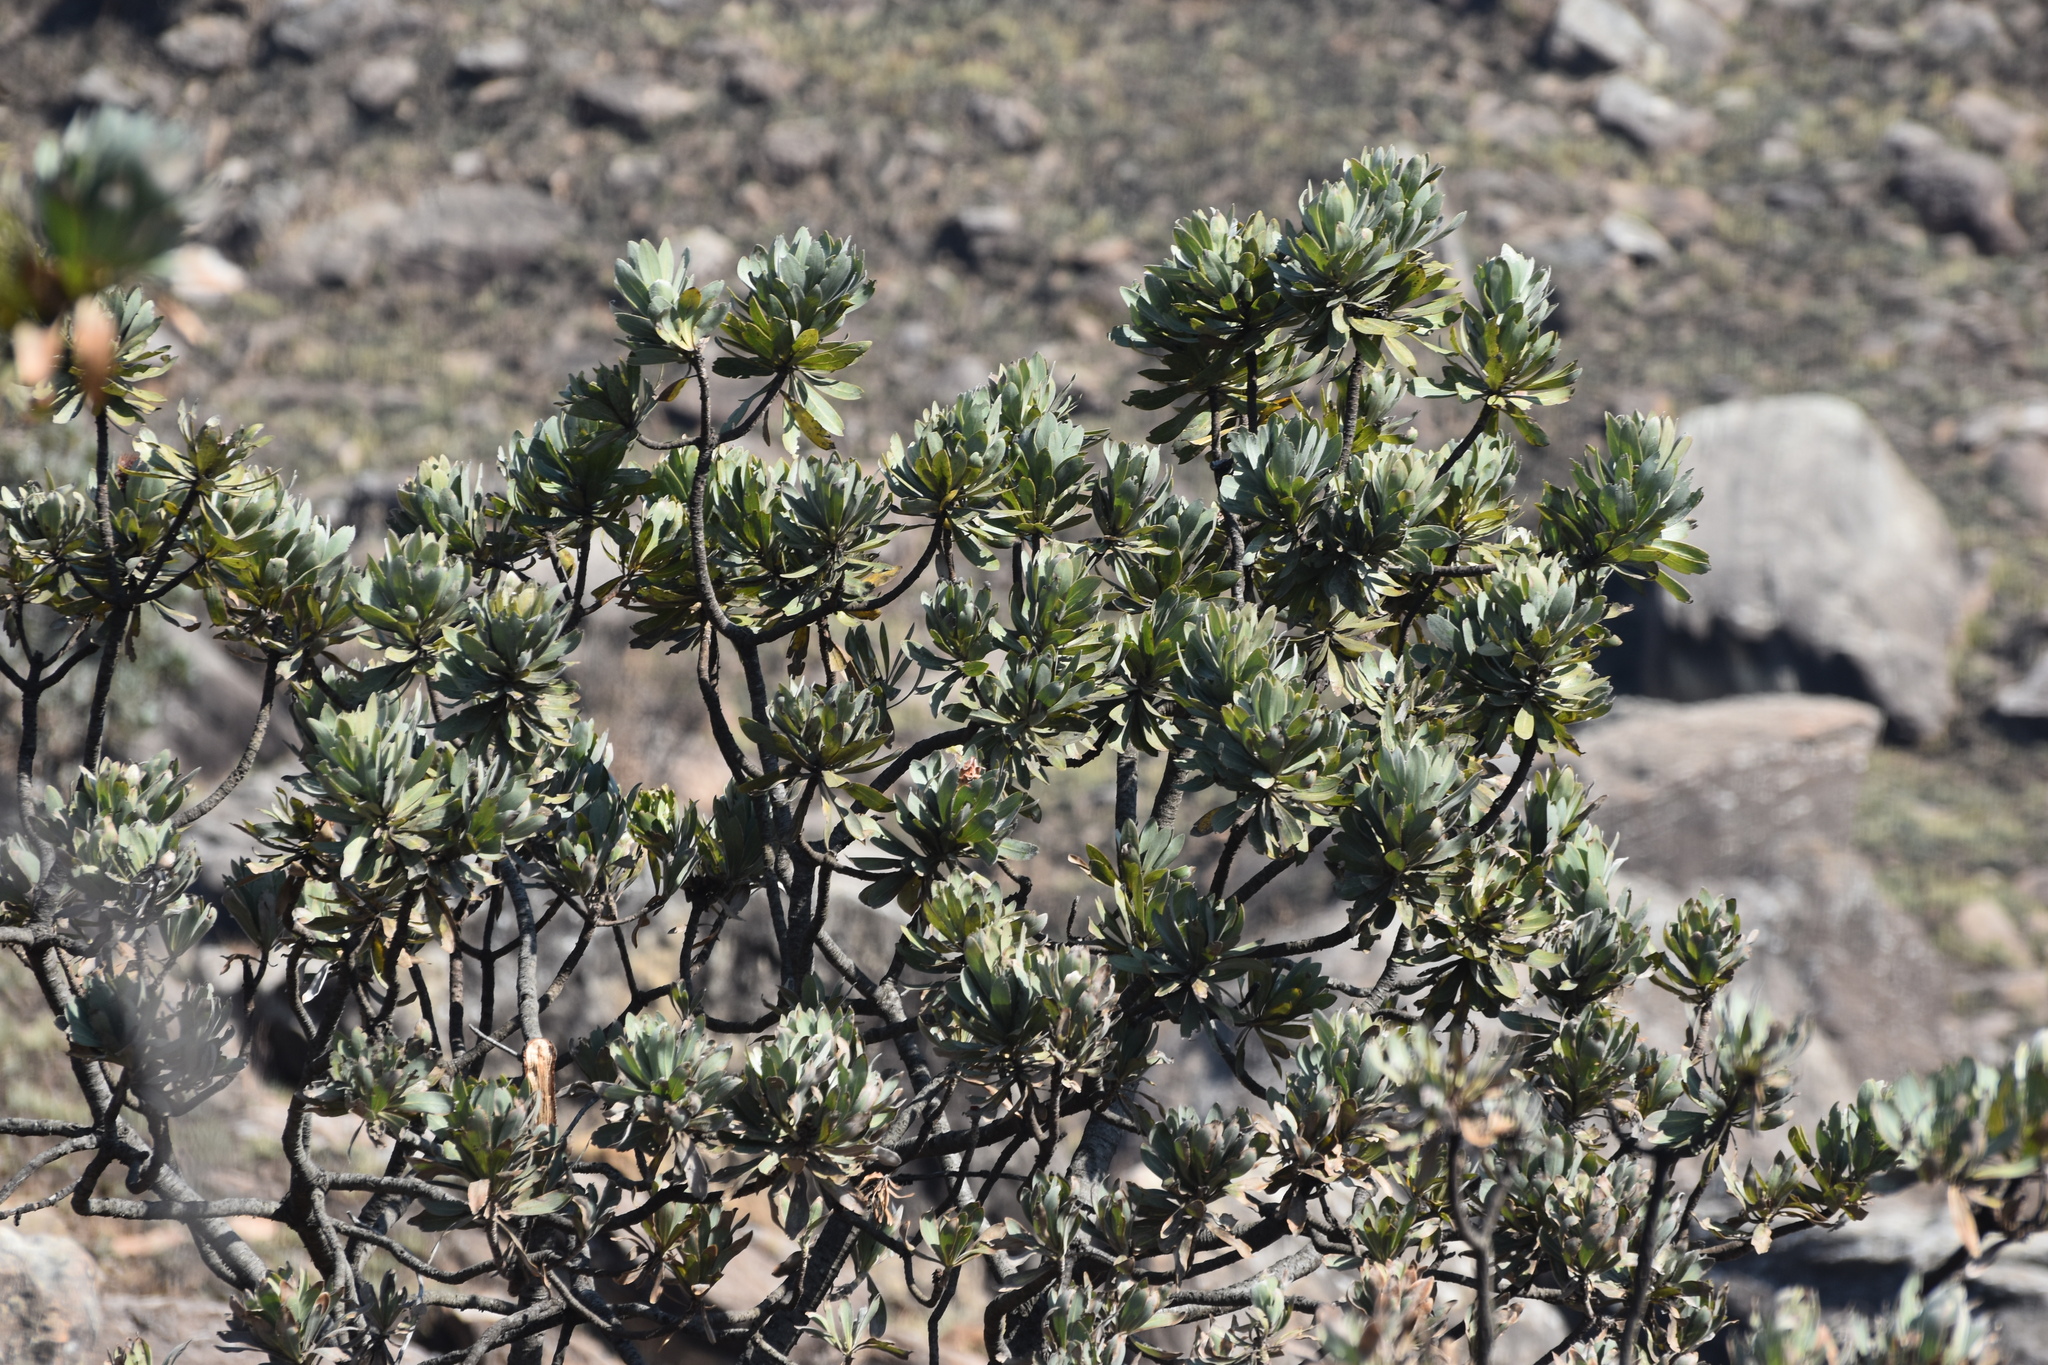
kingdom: Plantae
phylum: Tracheophyta
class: Magnoliopsida
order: Proteales
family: Proteaceae
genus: Protea
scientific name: Protea roupelliae
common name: Silver sugarbush
